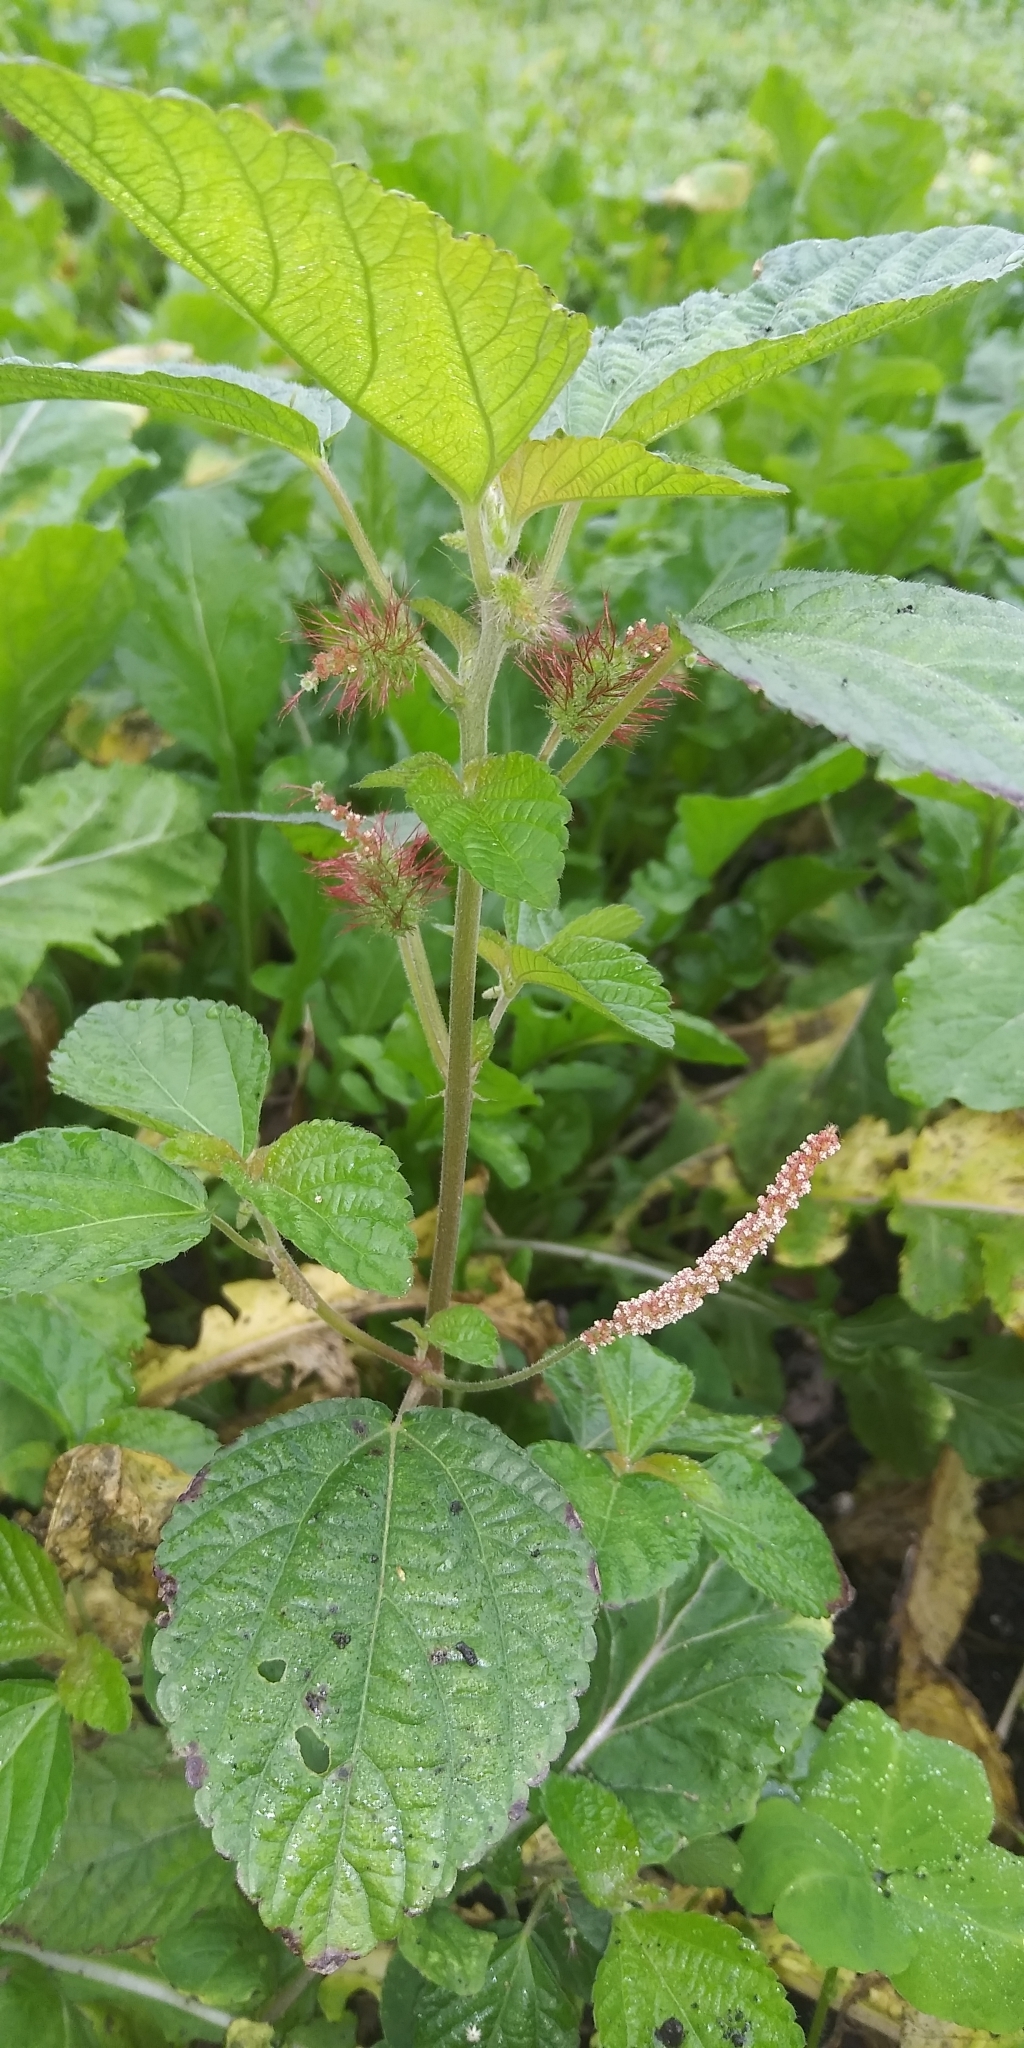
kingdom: Plantae
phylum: Tracheophyta
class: Magnoliopsida
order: Malpighiales
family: Euphorbiaceae
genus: Acalypha
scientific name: Acalypha arvensis
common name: Field copperleaf
